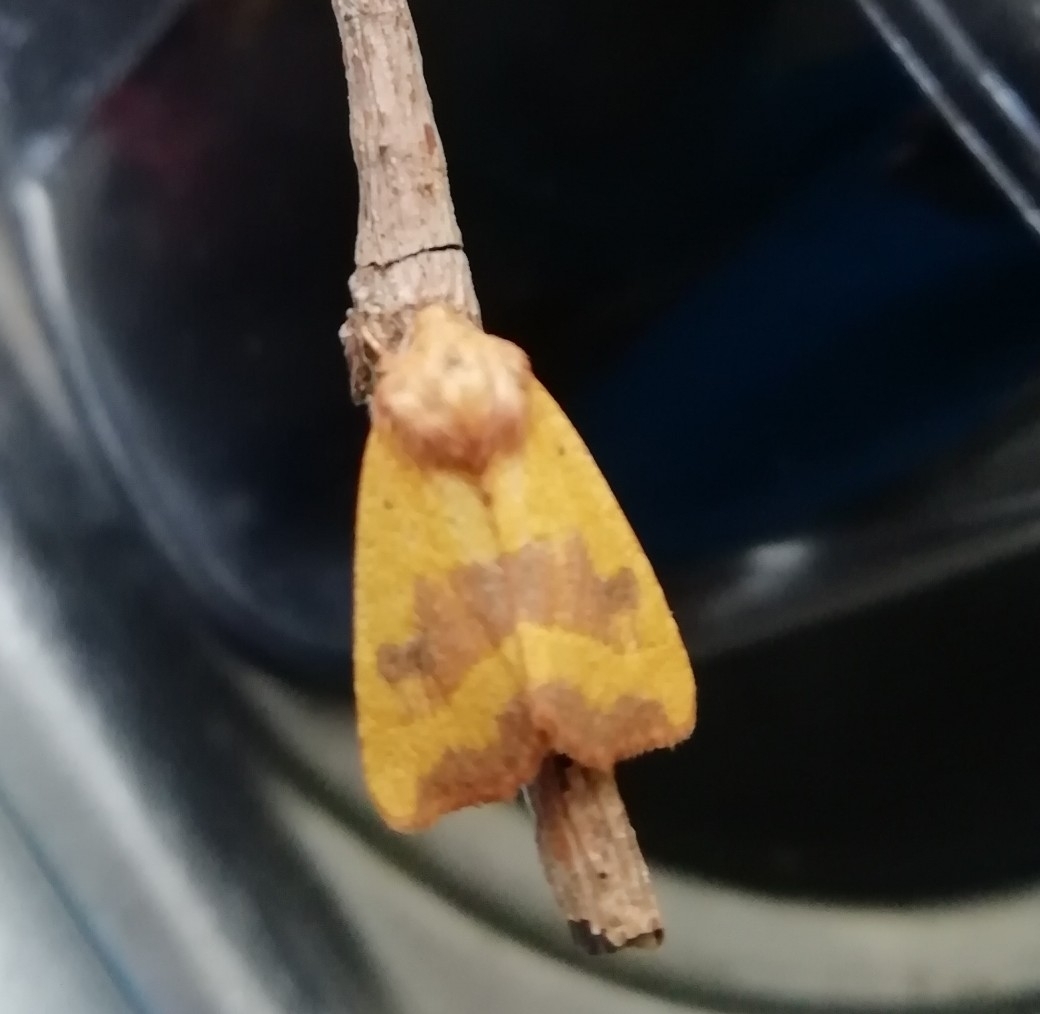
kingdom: Animalia
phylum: Arthropoda
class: Insecta
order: Lepidoptera
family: Noctuidae
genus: Atethmia
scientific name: Atethmia centrago
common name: Centre-barred sallow
